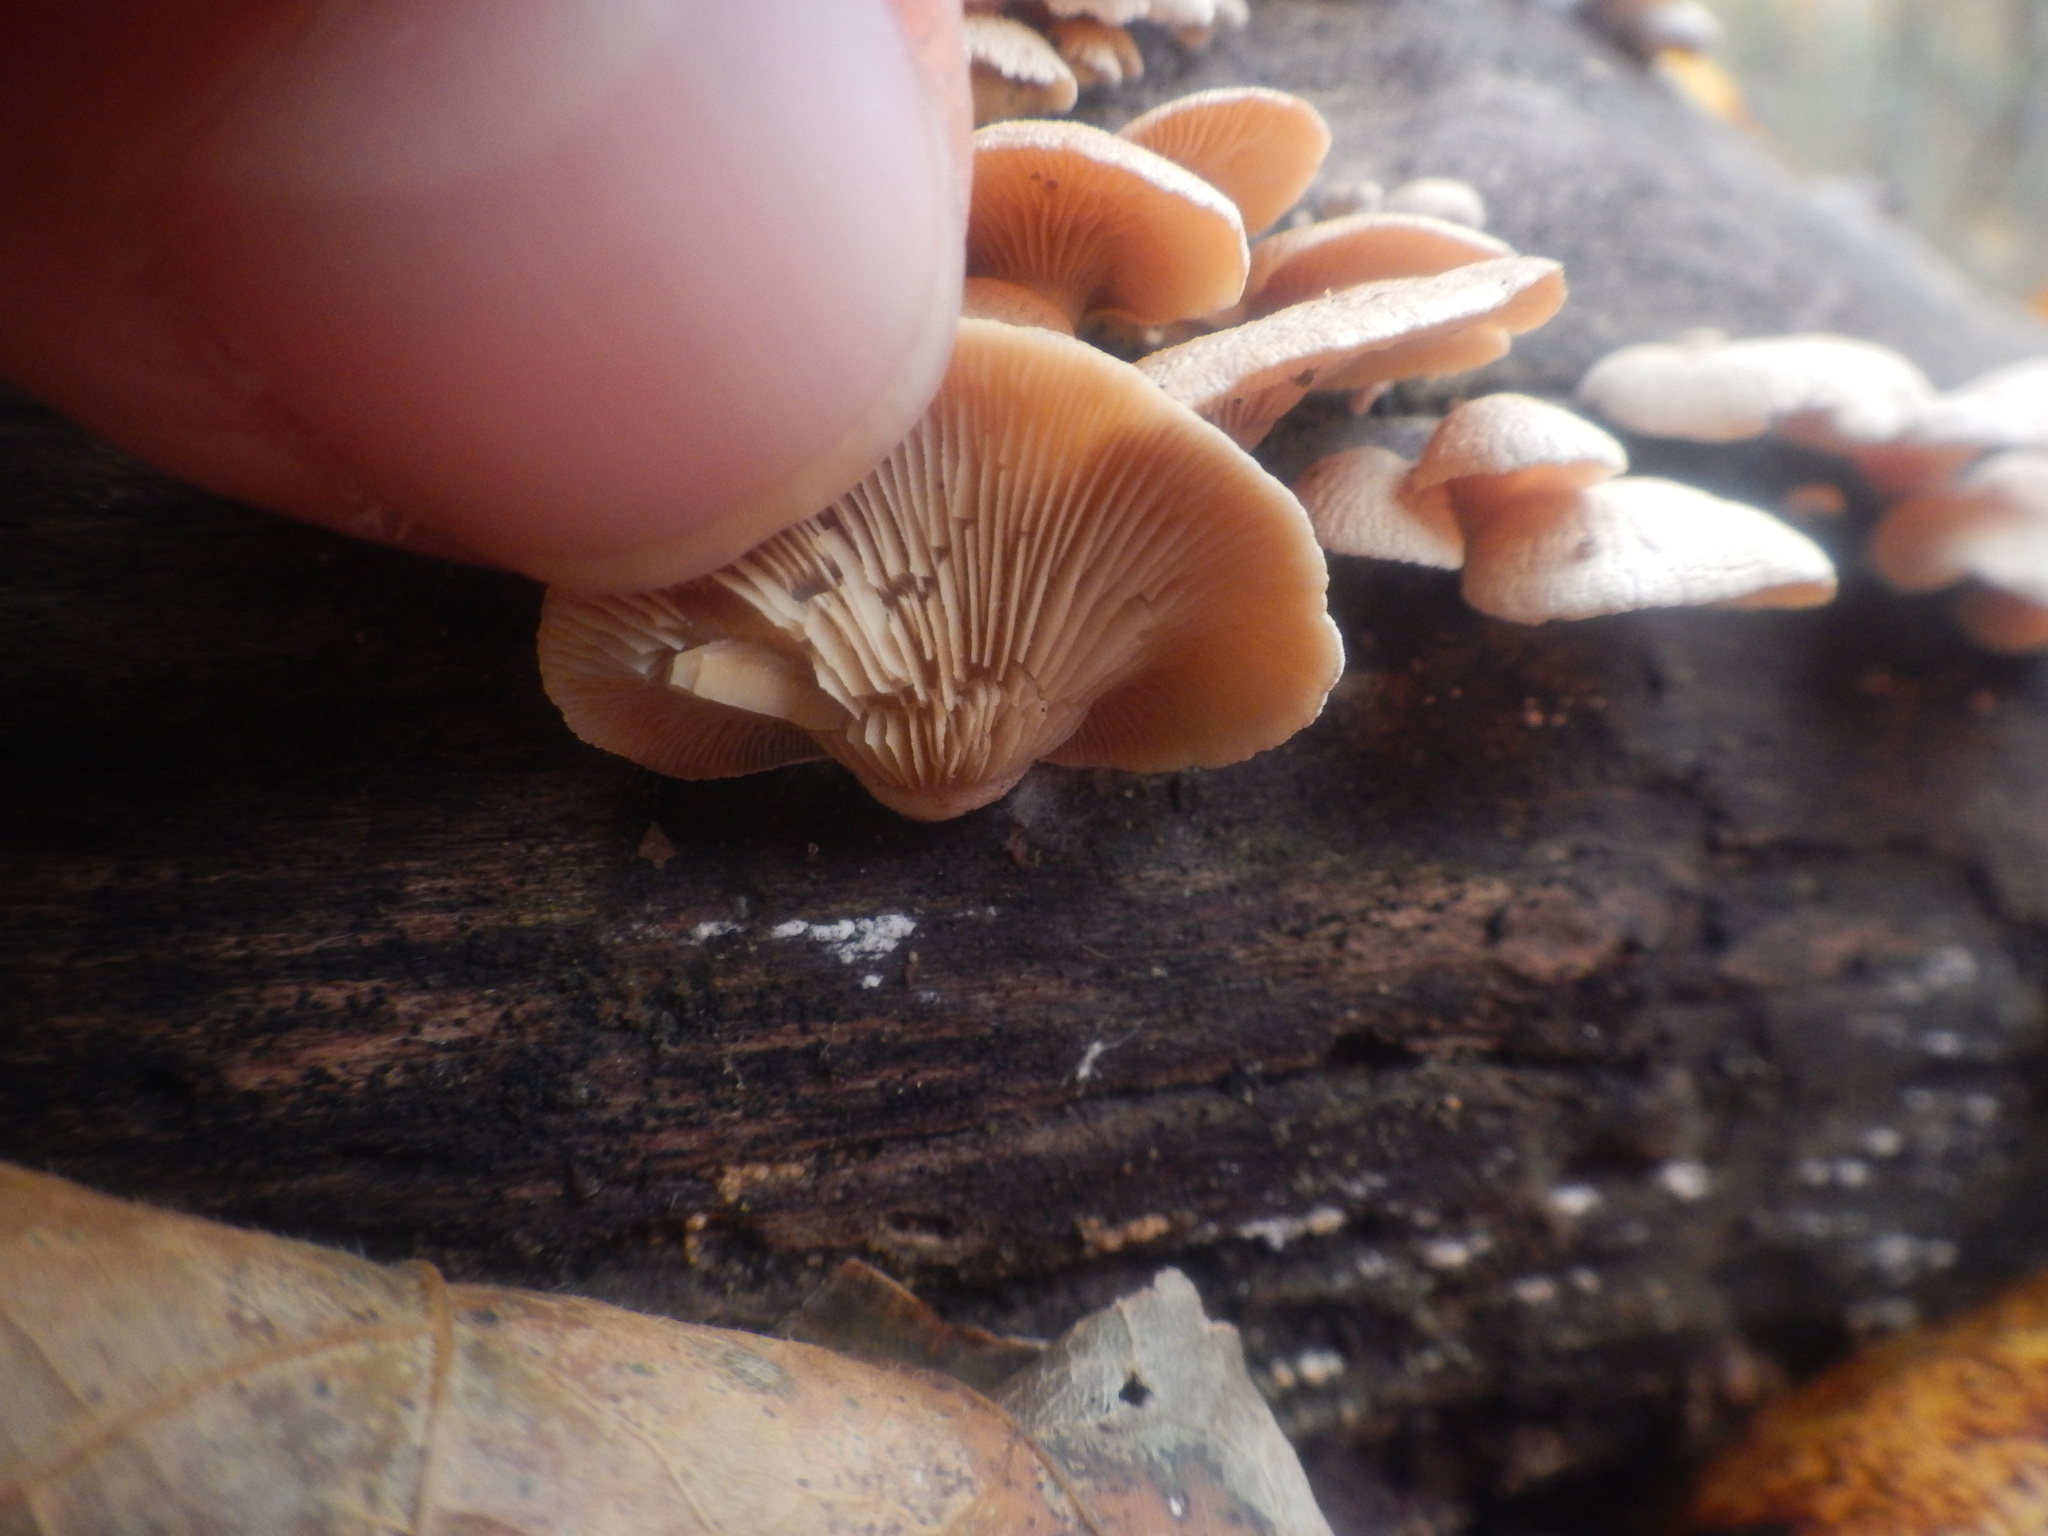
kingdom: Fungi
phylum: Basidiomycota
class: Agaricomycetes
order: Agaricales
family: Mycenaceae
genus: Panellus
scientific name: Panellus stipticus
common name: Bitter oysterling
